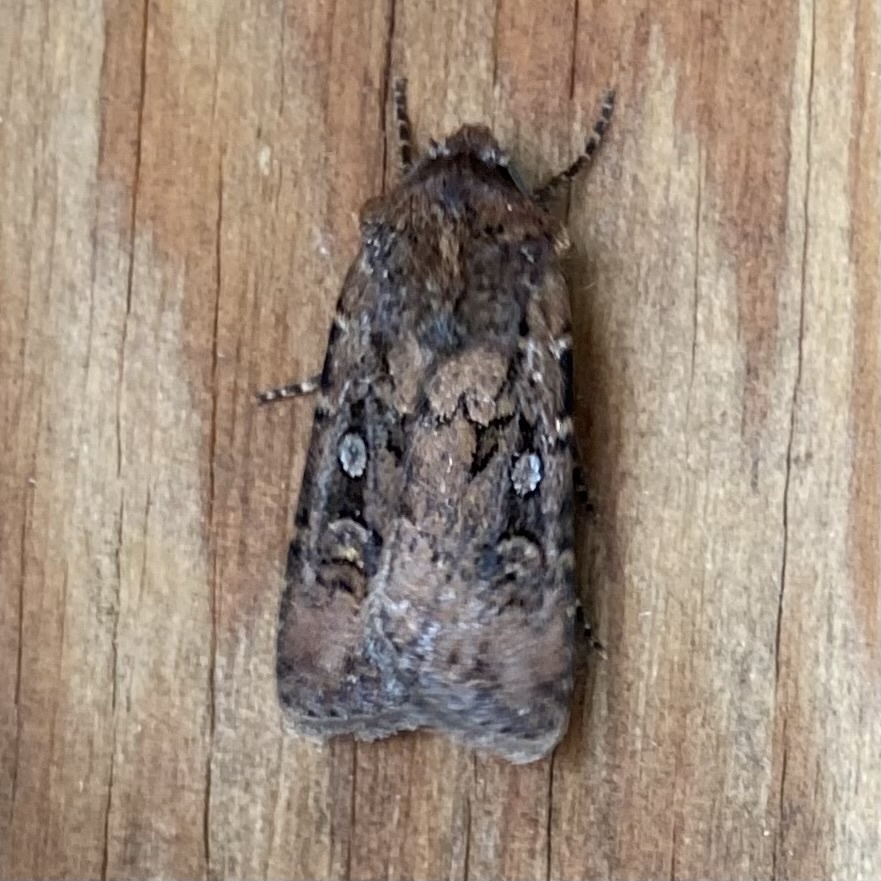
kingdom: Animalia
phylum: Arthropoda
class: Insecta
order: Lepidoptera
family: Noctuidae
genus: Euxoa
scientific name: Euxoa nigricans
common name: Garden dart
